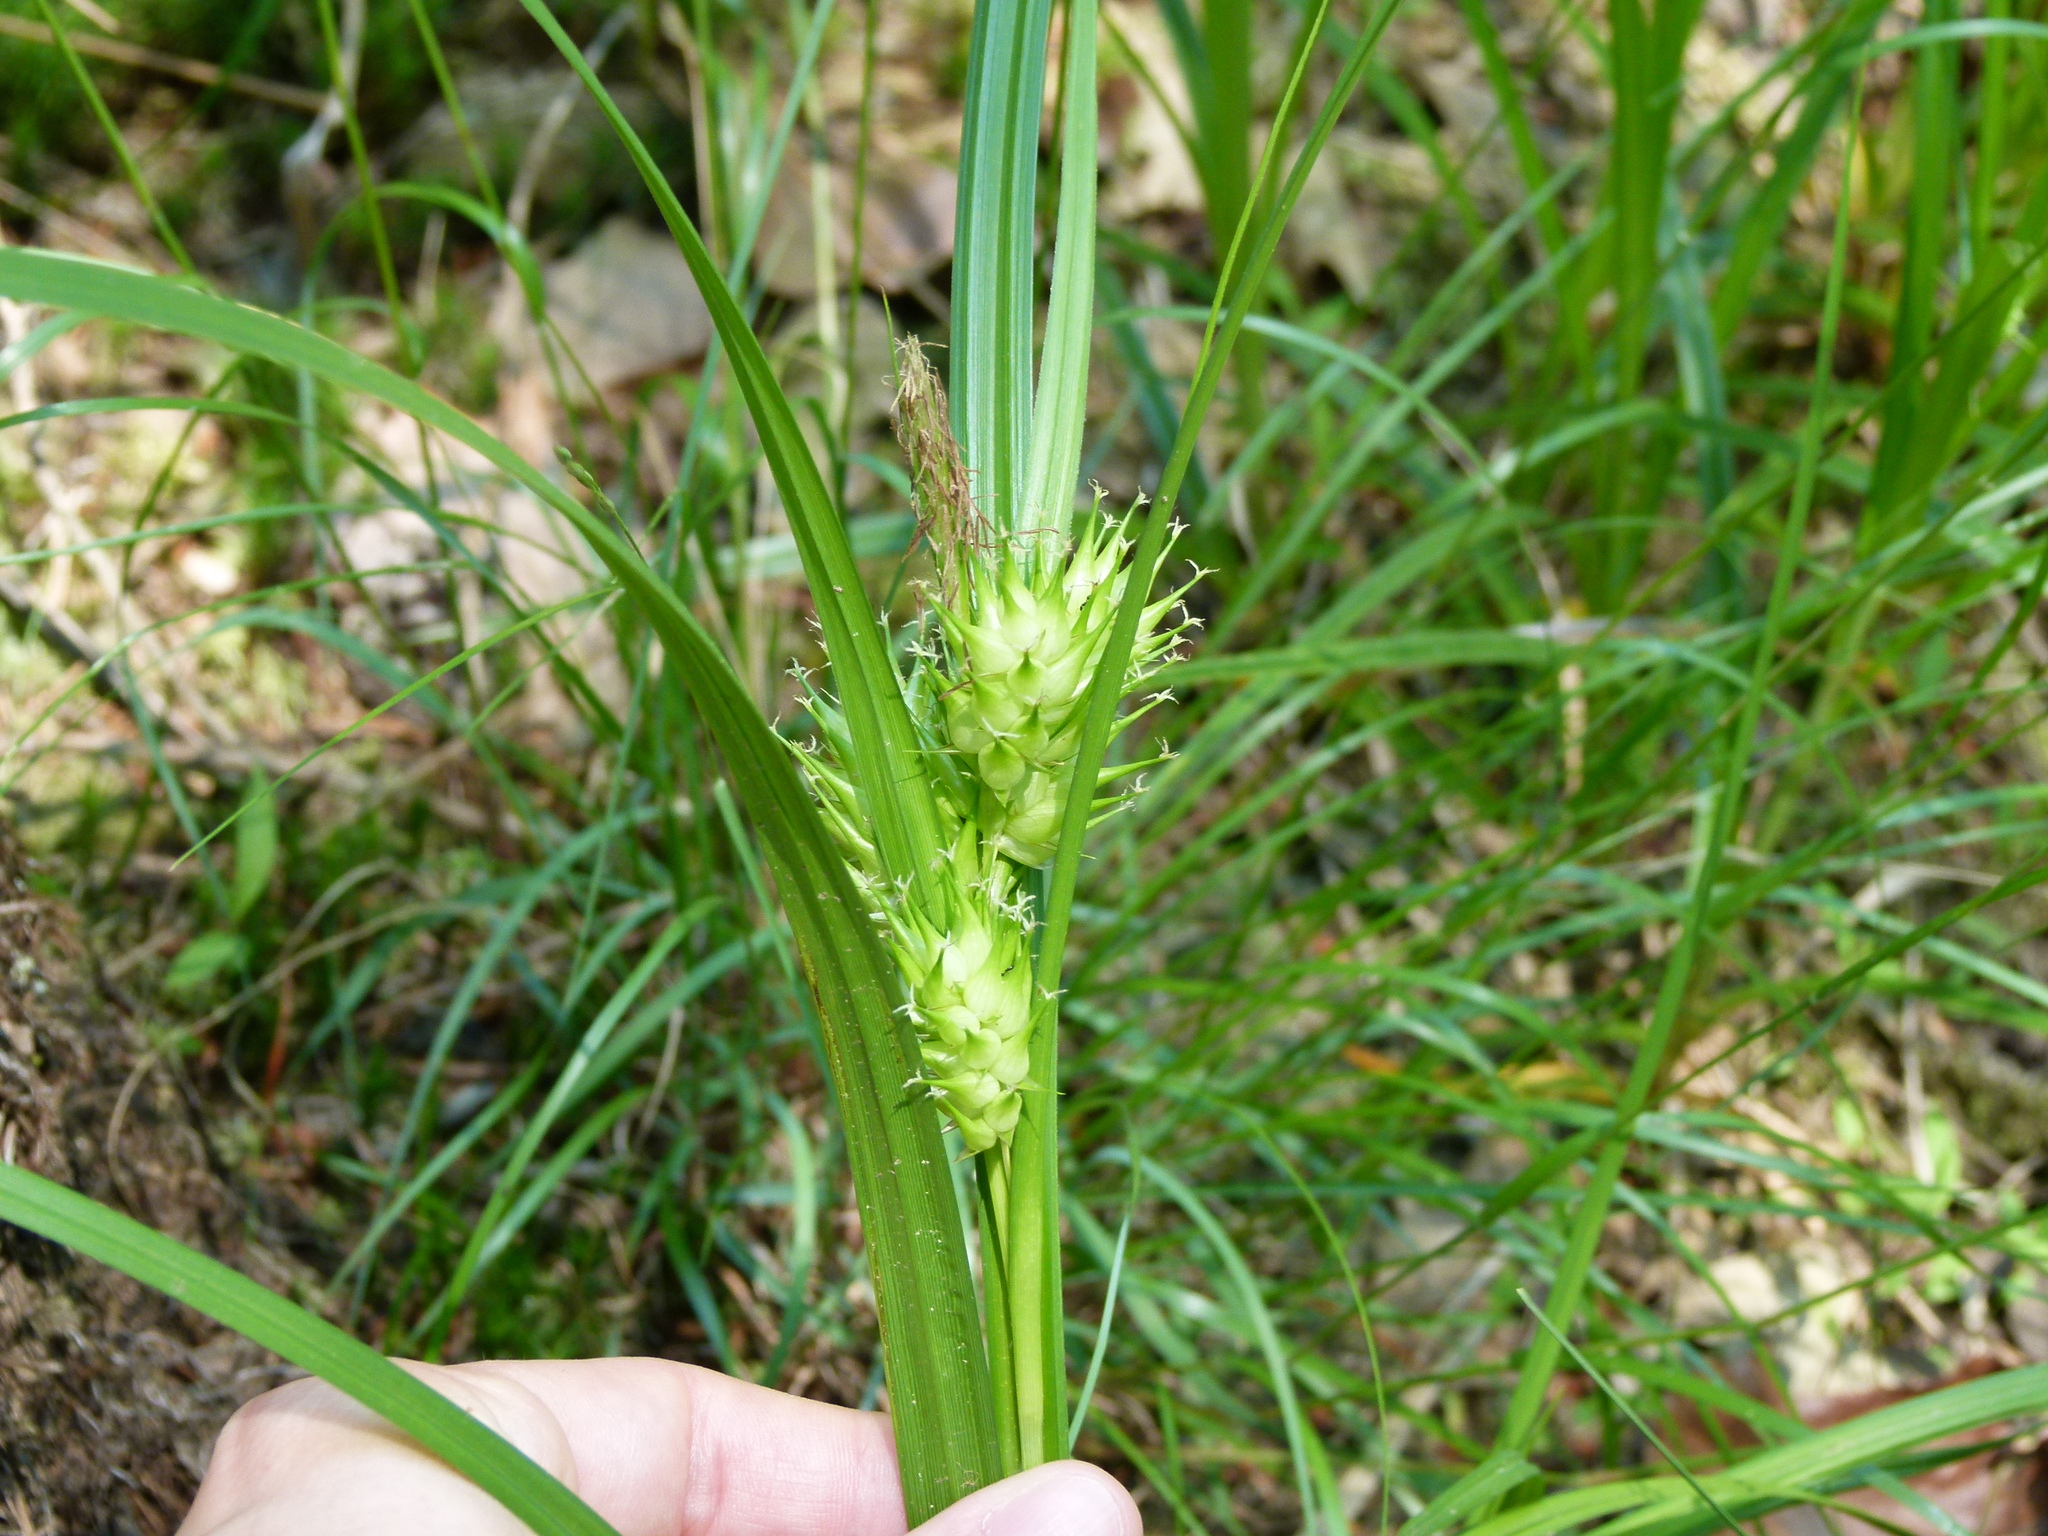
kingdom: Plantae
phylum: Tracheophyta
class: Liliopsida
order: Poales
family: Cyperaceae
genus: Carex
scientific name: Carex lupulina
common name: Hop sedge
